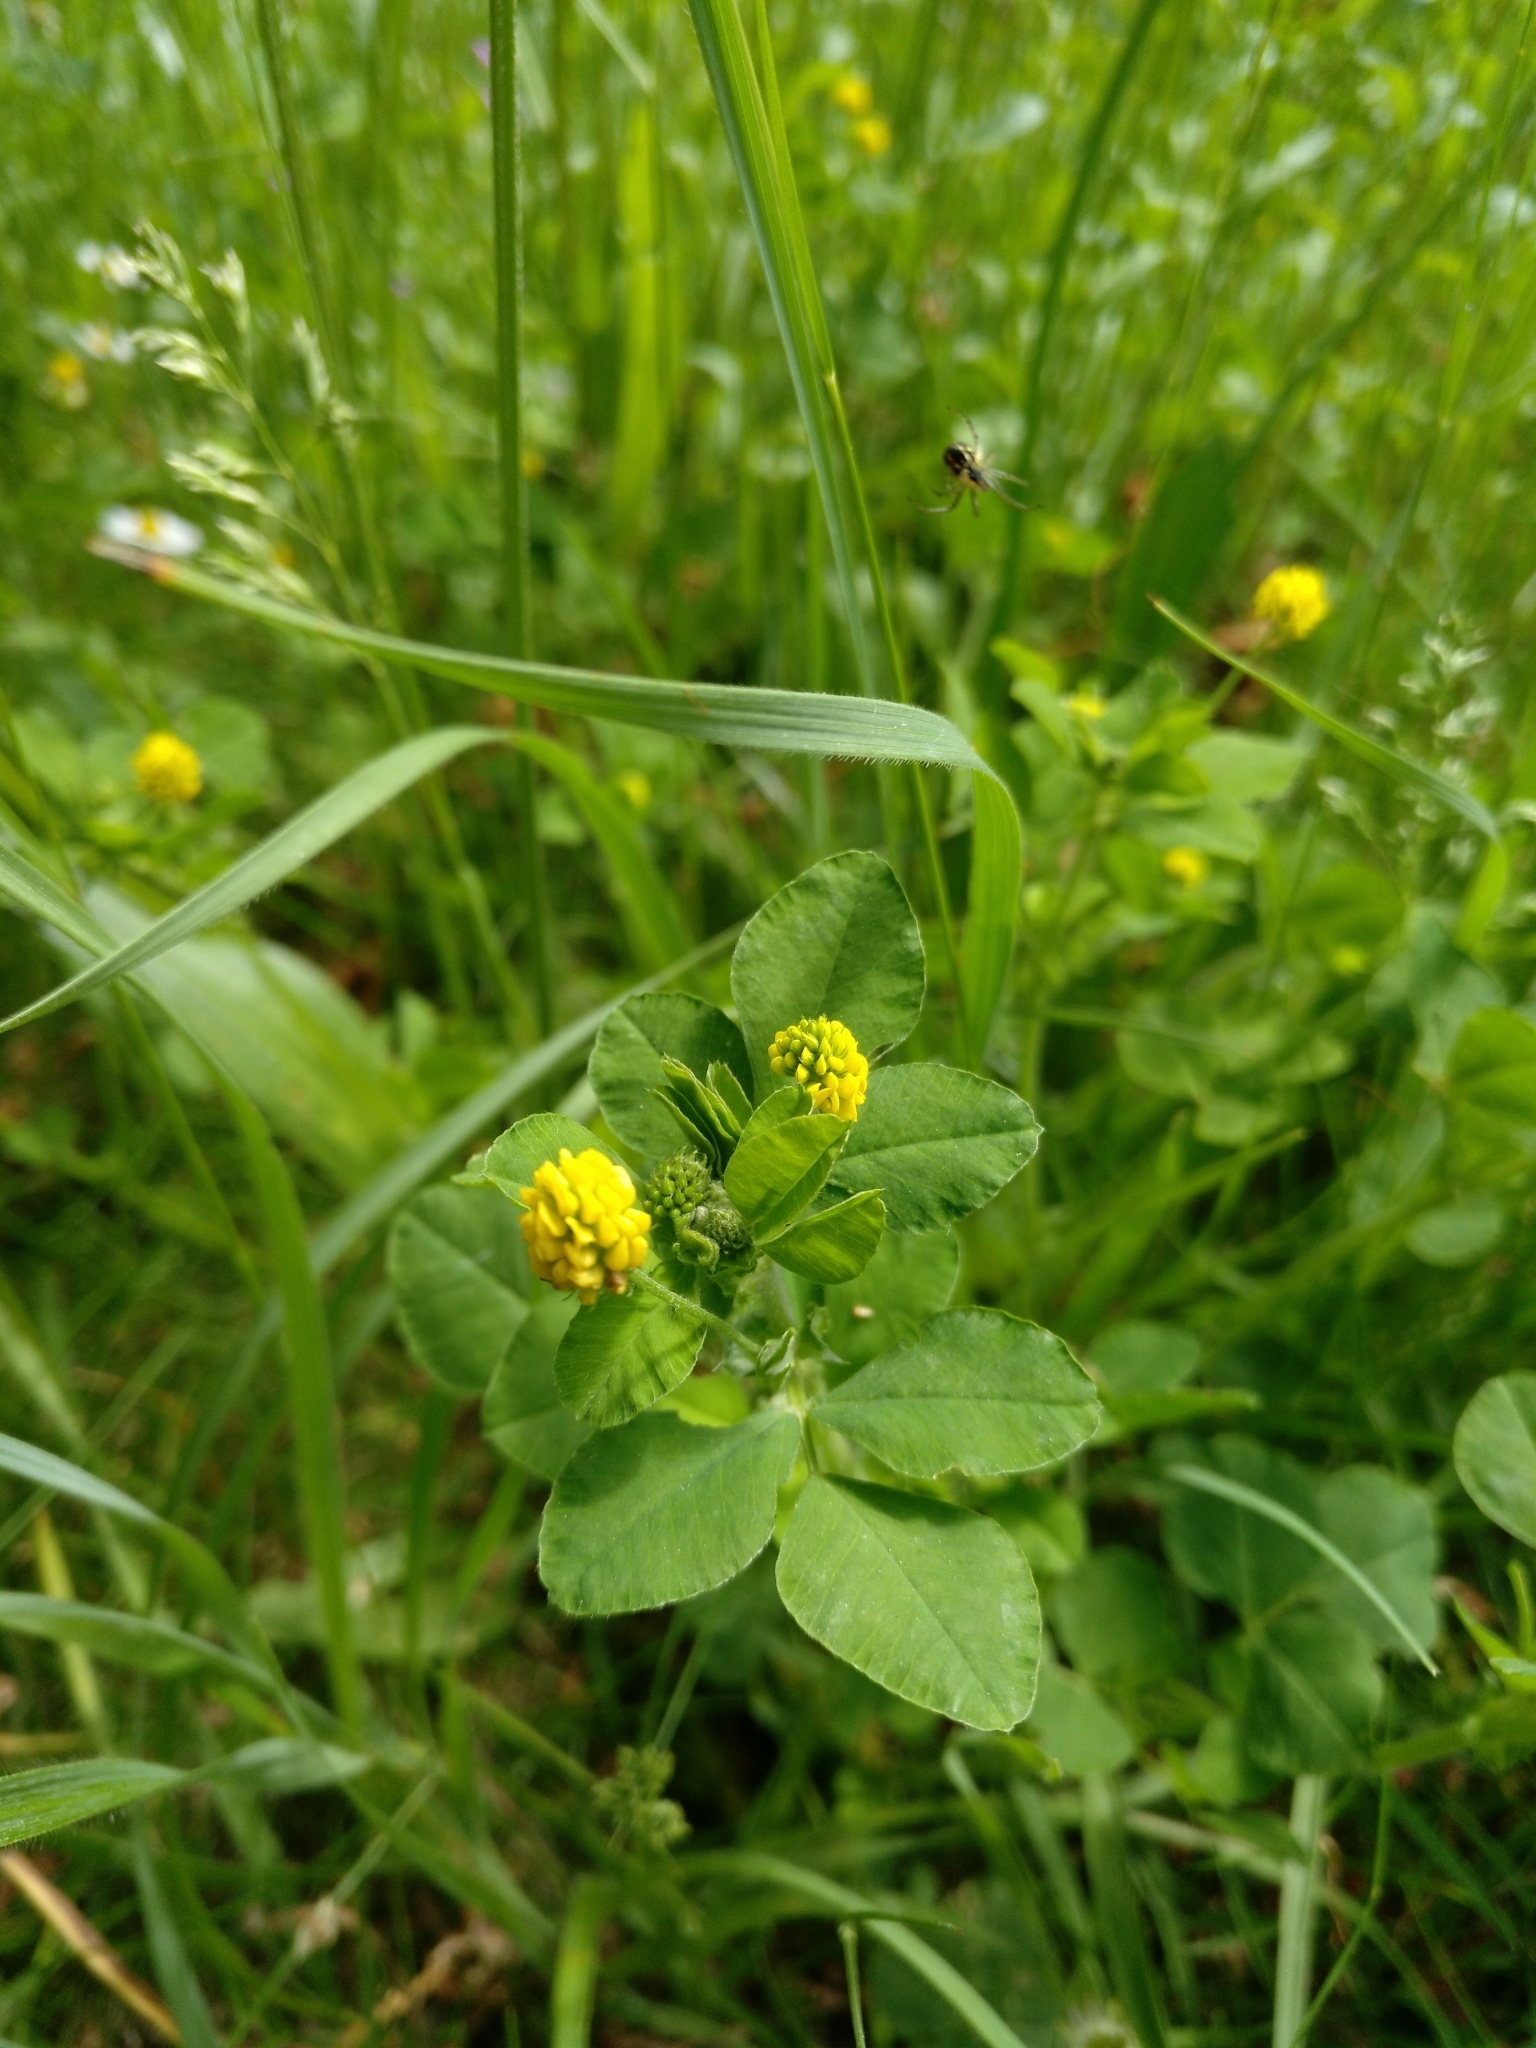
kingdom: Plantae
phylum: Tracheophyta
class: Magnoliopsida
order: Fabales
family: Fabaceae
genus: Medicago
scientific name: Medicago lupulina
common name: Black medick
